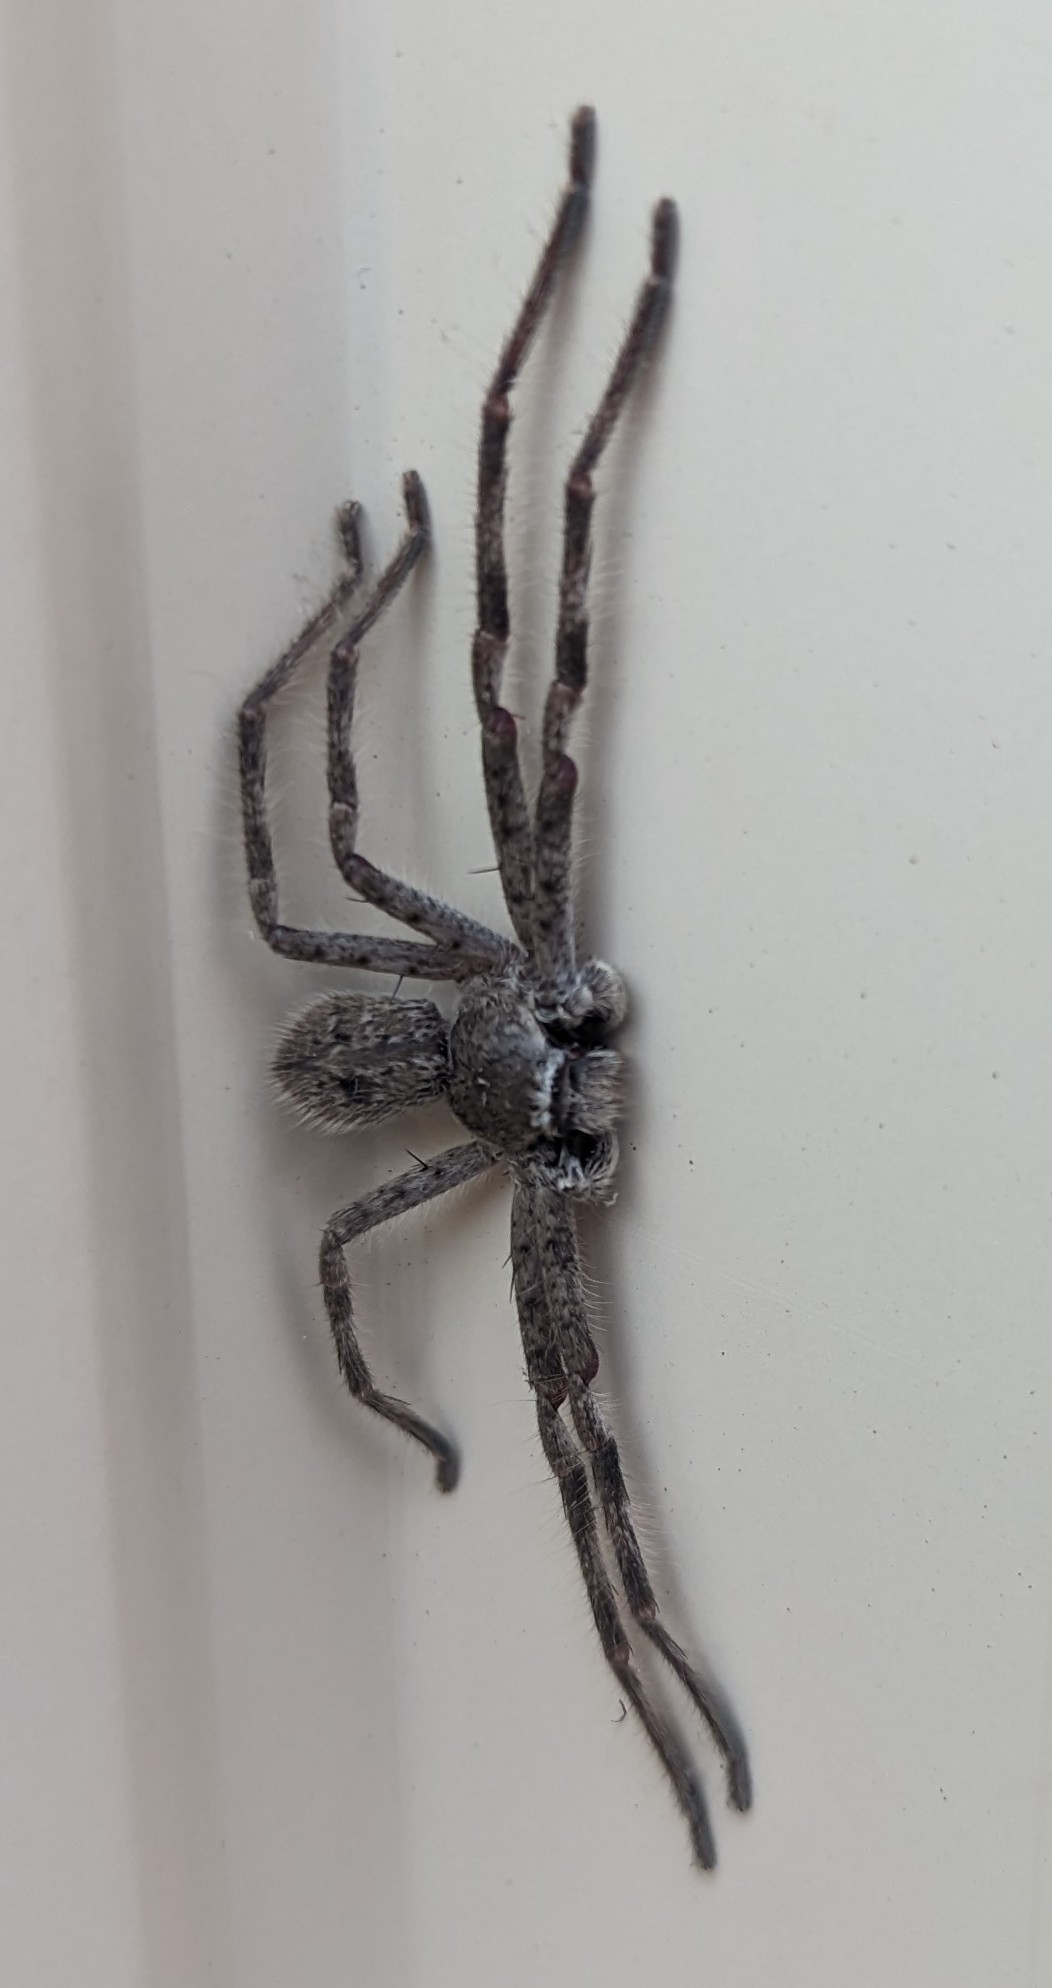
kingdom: Animalia
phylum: Arthropoda
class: Arachnida
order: Araneae
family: Sparassidae
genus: Isopedella
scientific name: Isopedella victorialis
